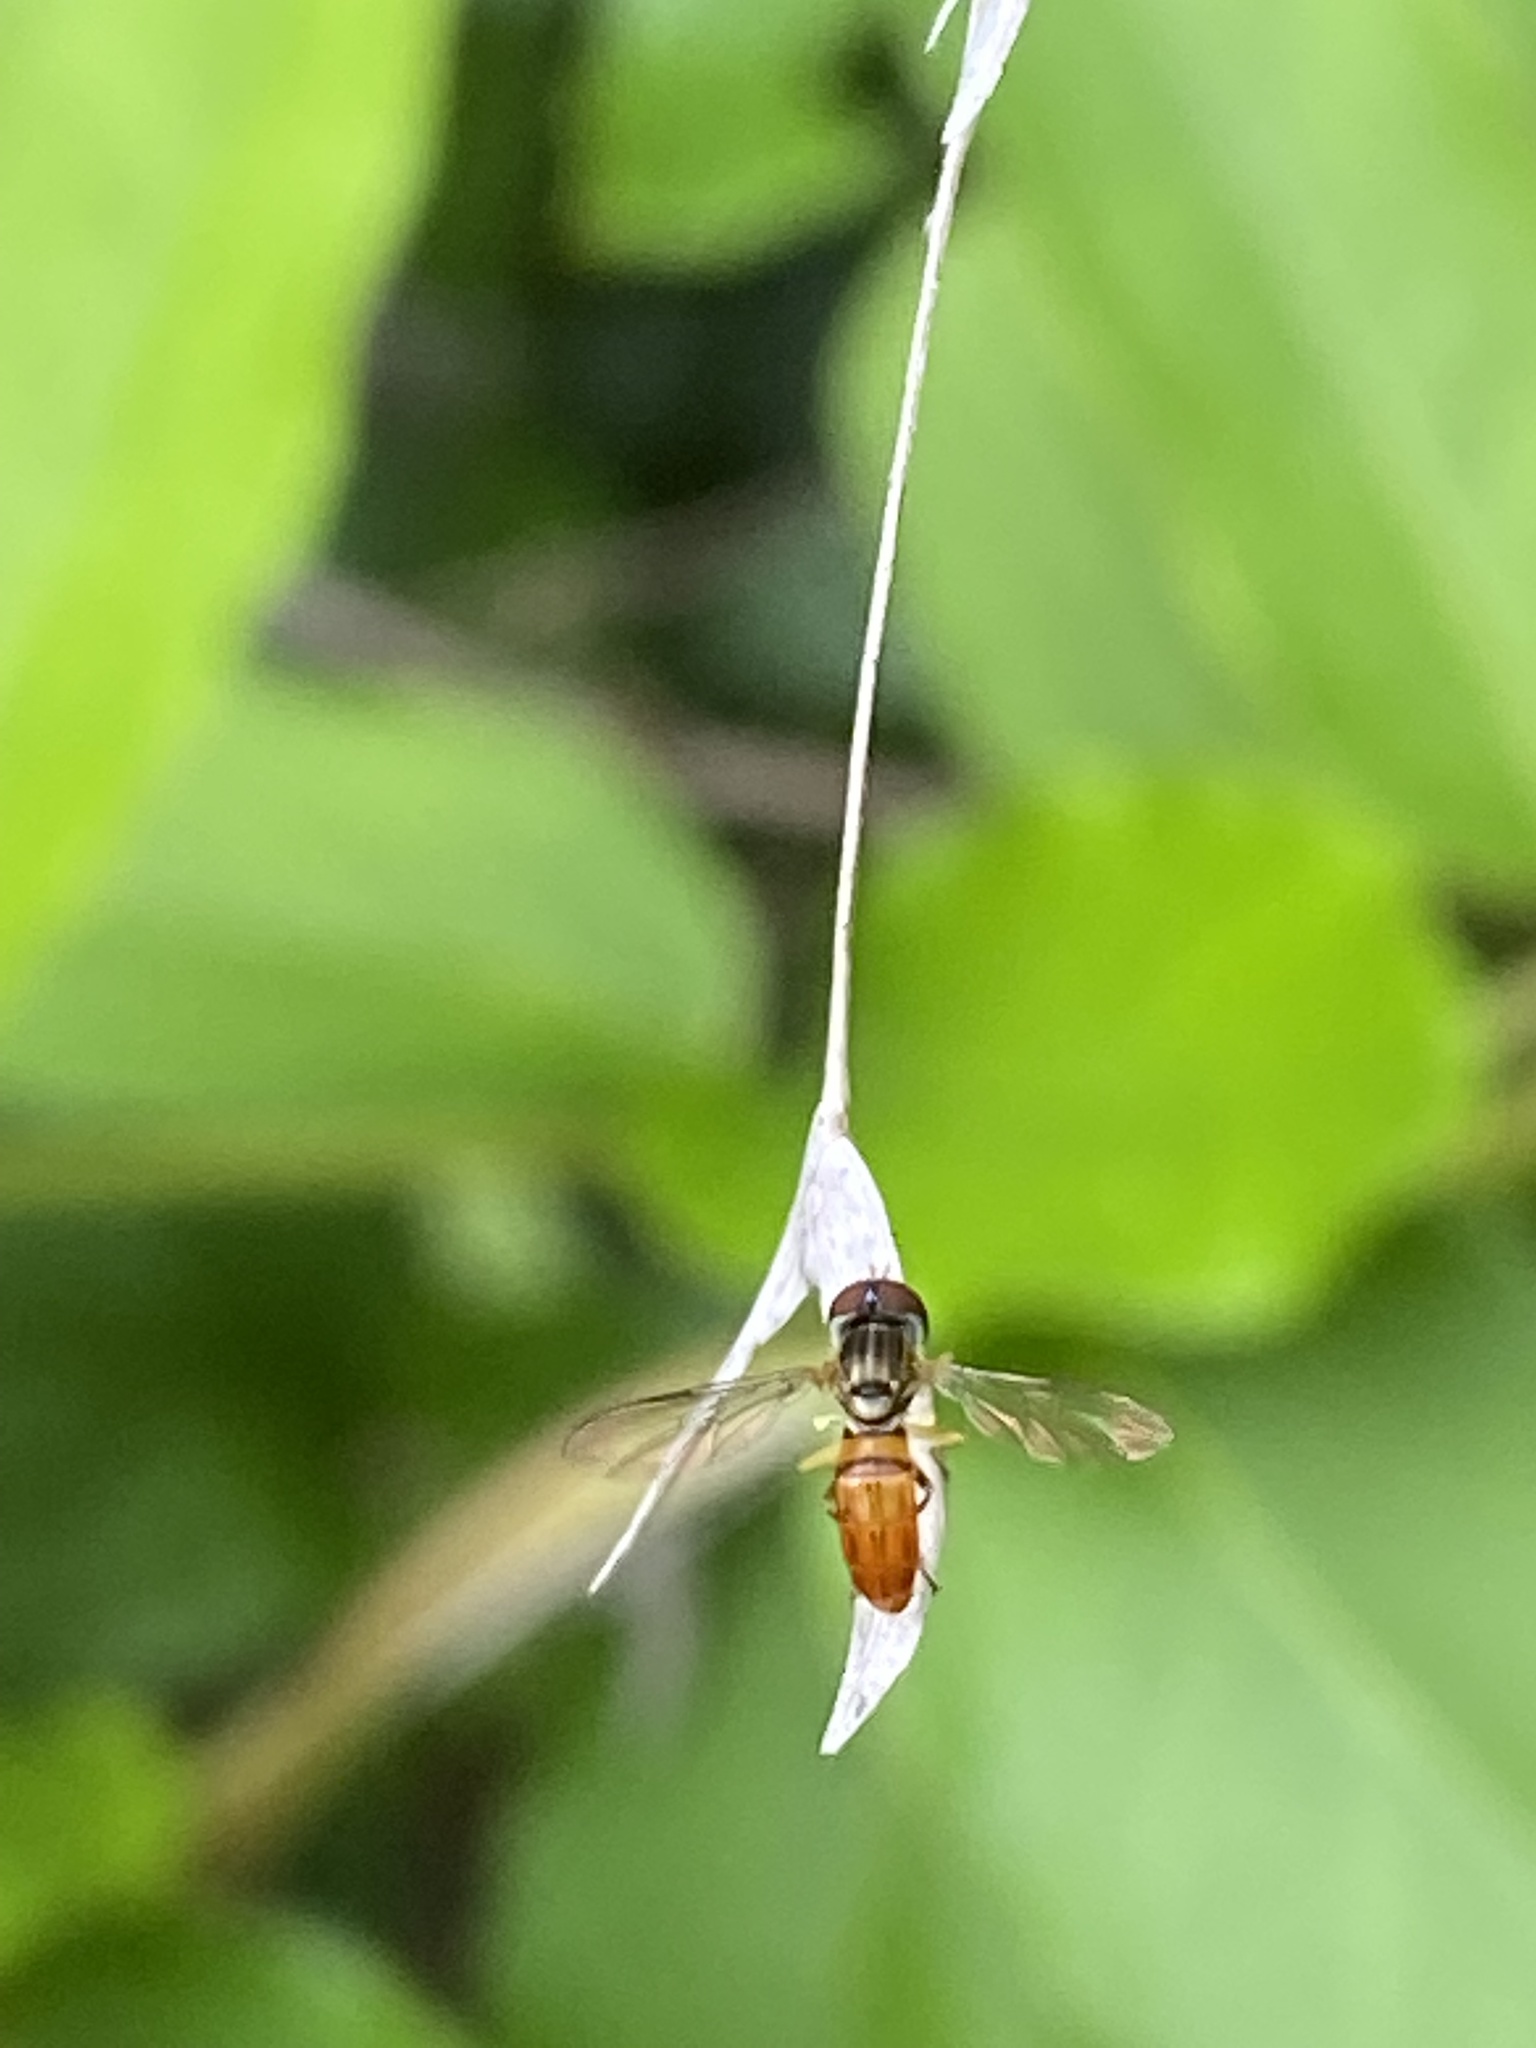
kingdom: Animalia
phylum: Arthropoda
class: Insecta
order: Diptera
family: Syrphidae
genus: Toxomerus
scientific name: Toxomerus boscii
